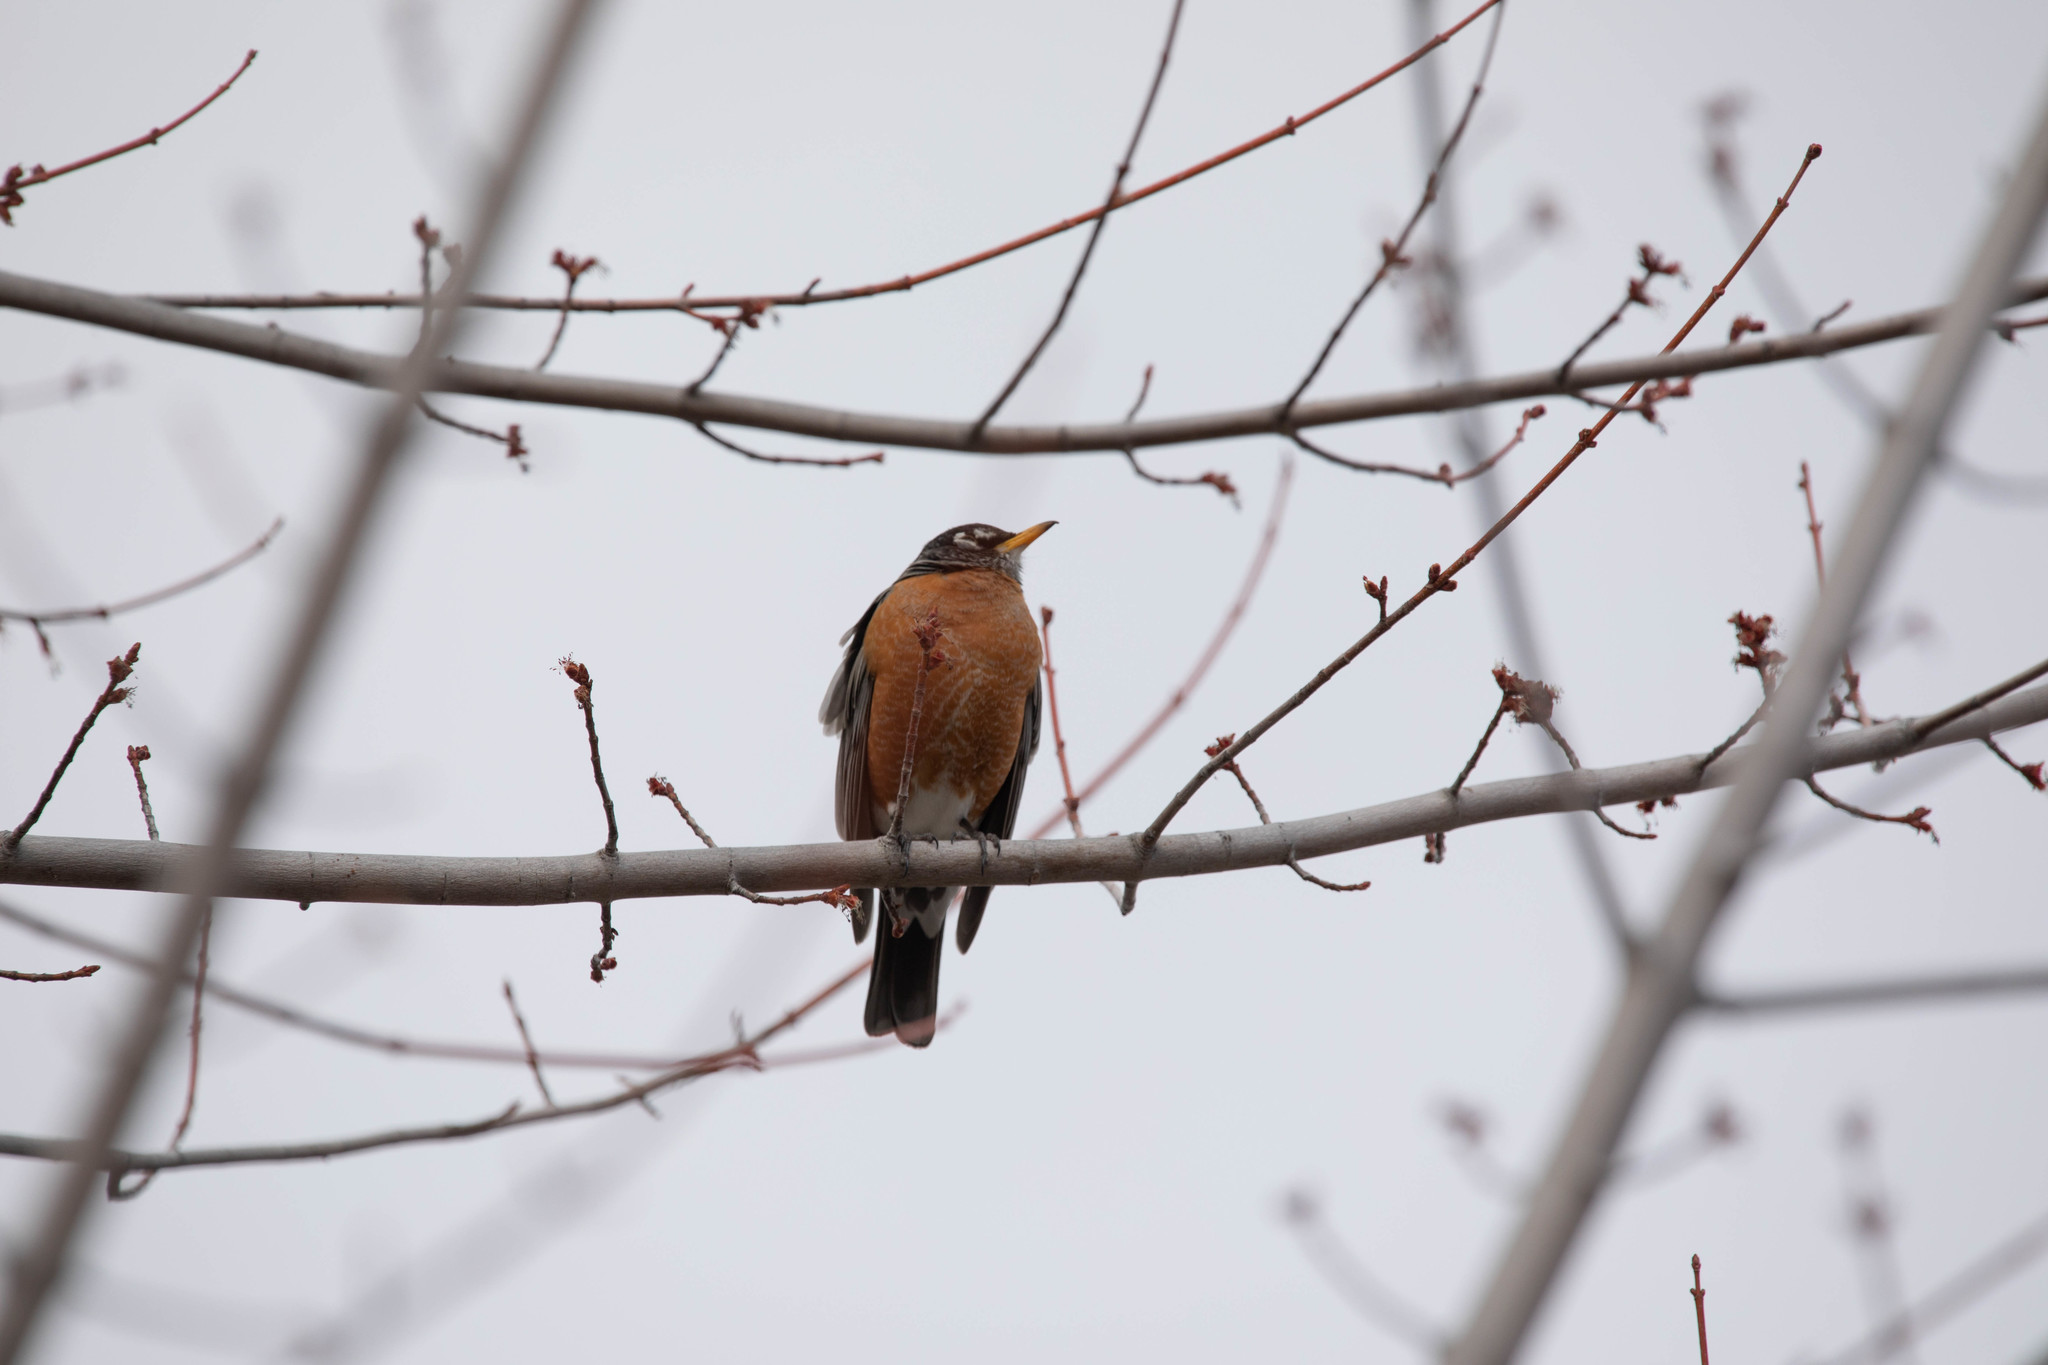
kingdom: Animalia
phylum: Chordata
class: Aves
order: Passeriformes
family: Turdidae
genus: Turdus
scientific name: Turdus migratorius
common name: American robin
